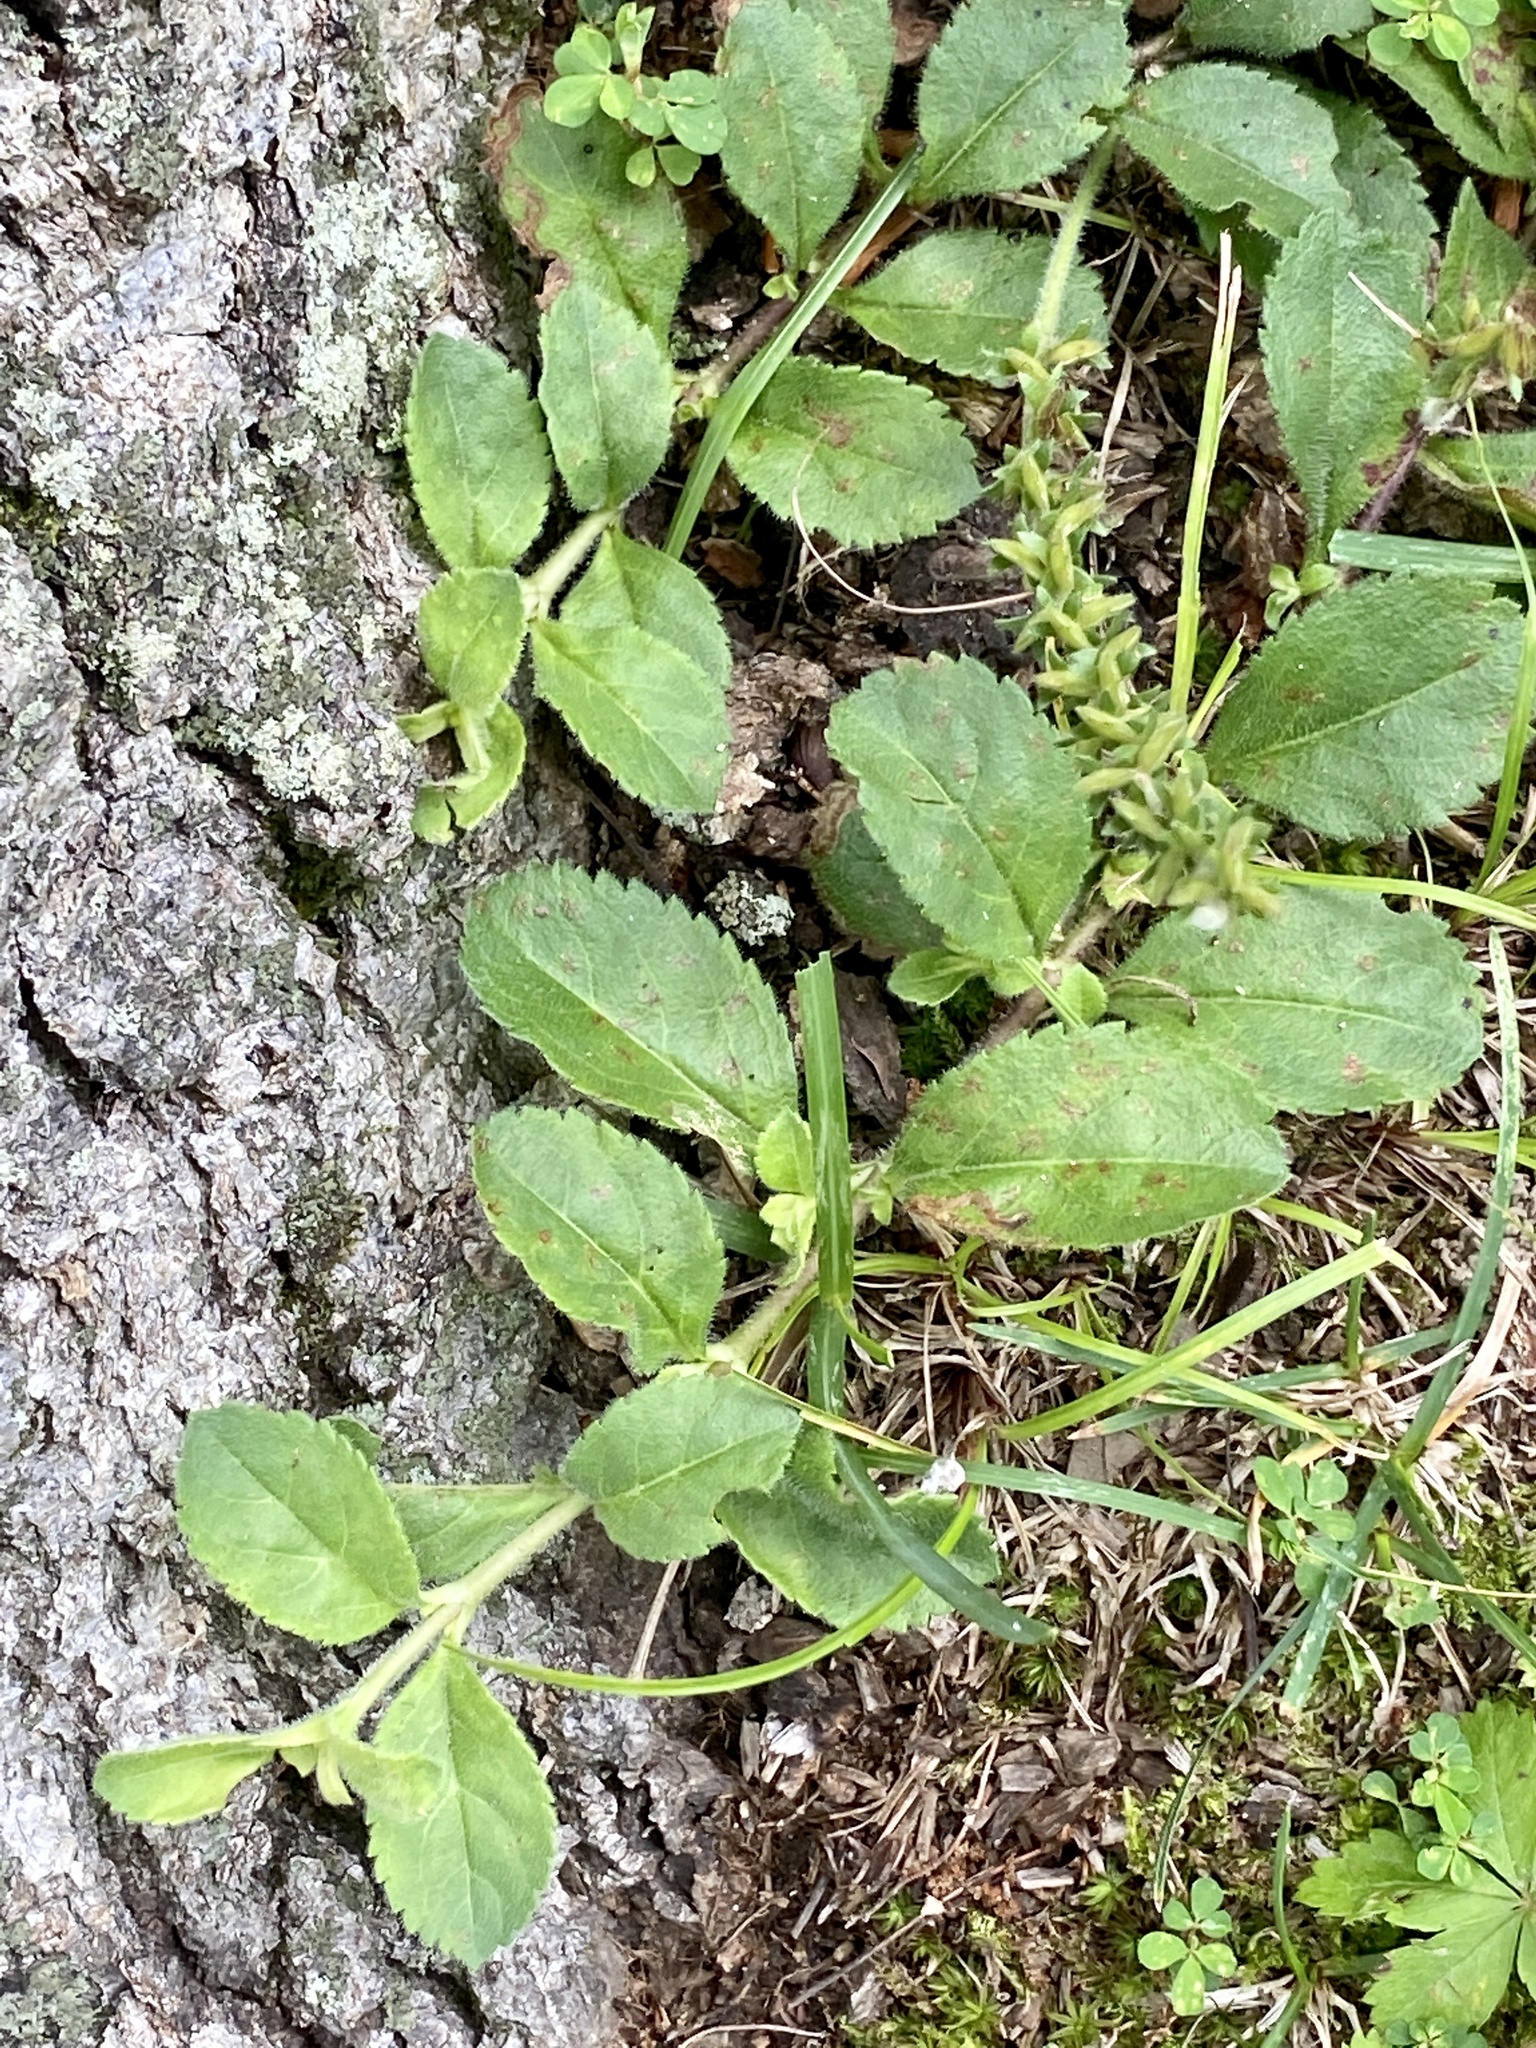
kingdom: Plantae
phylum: Tracheophyta
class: Magnoliopsida
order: Lamiales
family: Plantaginaceae
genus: Veronica
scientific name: Veronica officinalis
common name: Common speedwell
